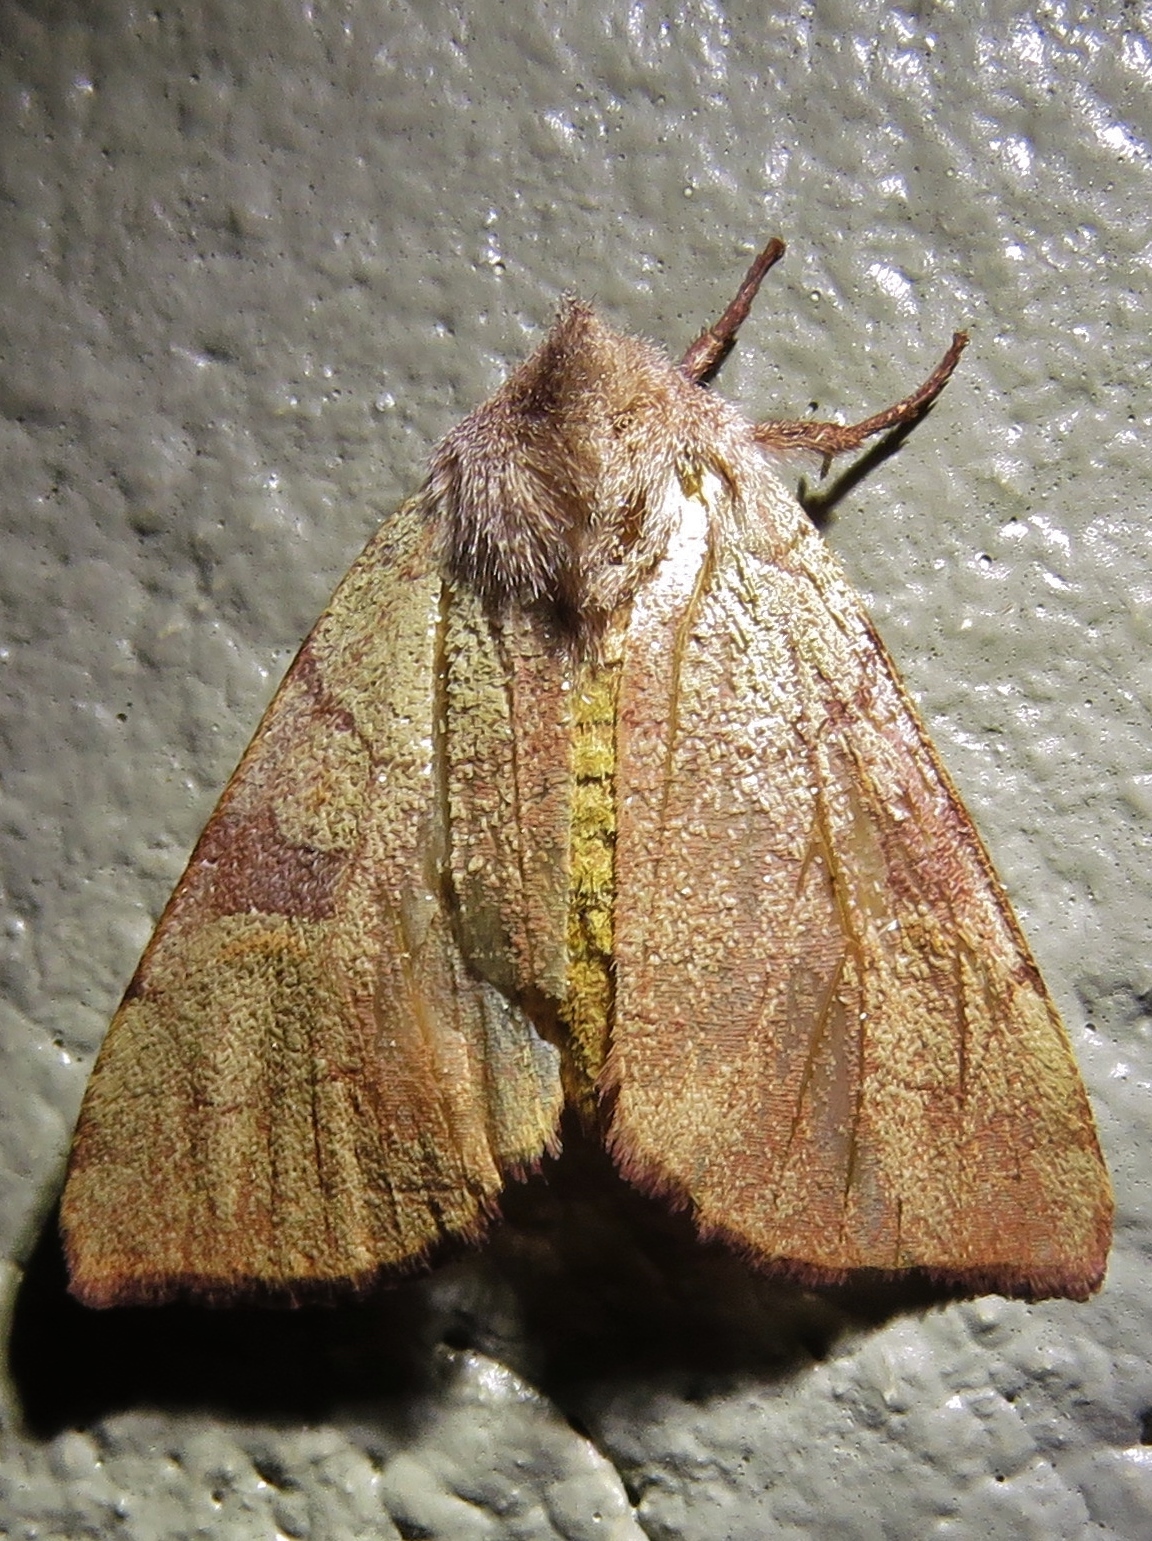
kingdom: Animalia
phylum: Arthropoda
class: Insecta
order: Lepidoptera
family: Noctuidae
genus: Choephora
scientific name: Choephora fungorum
